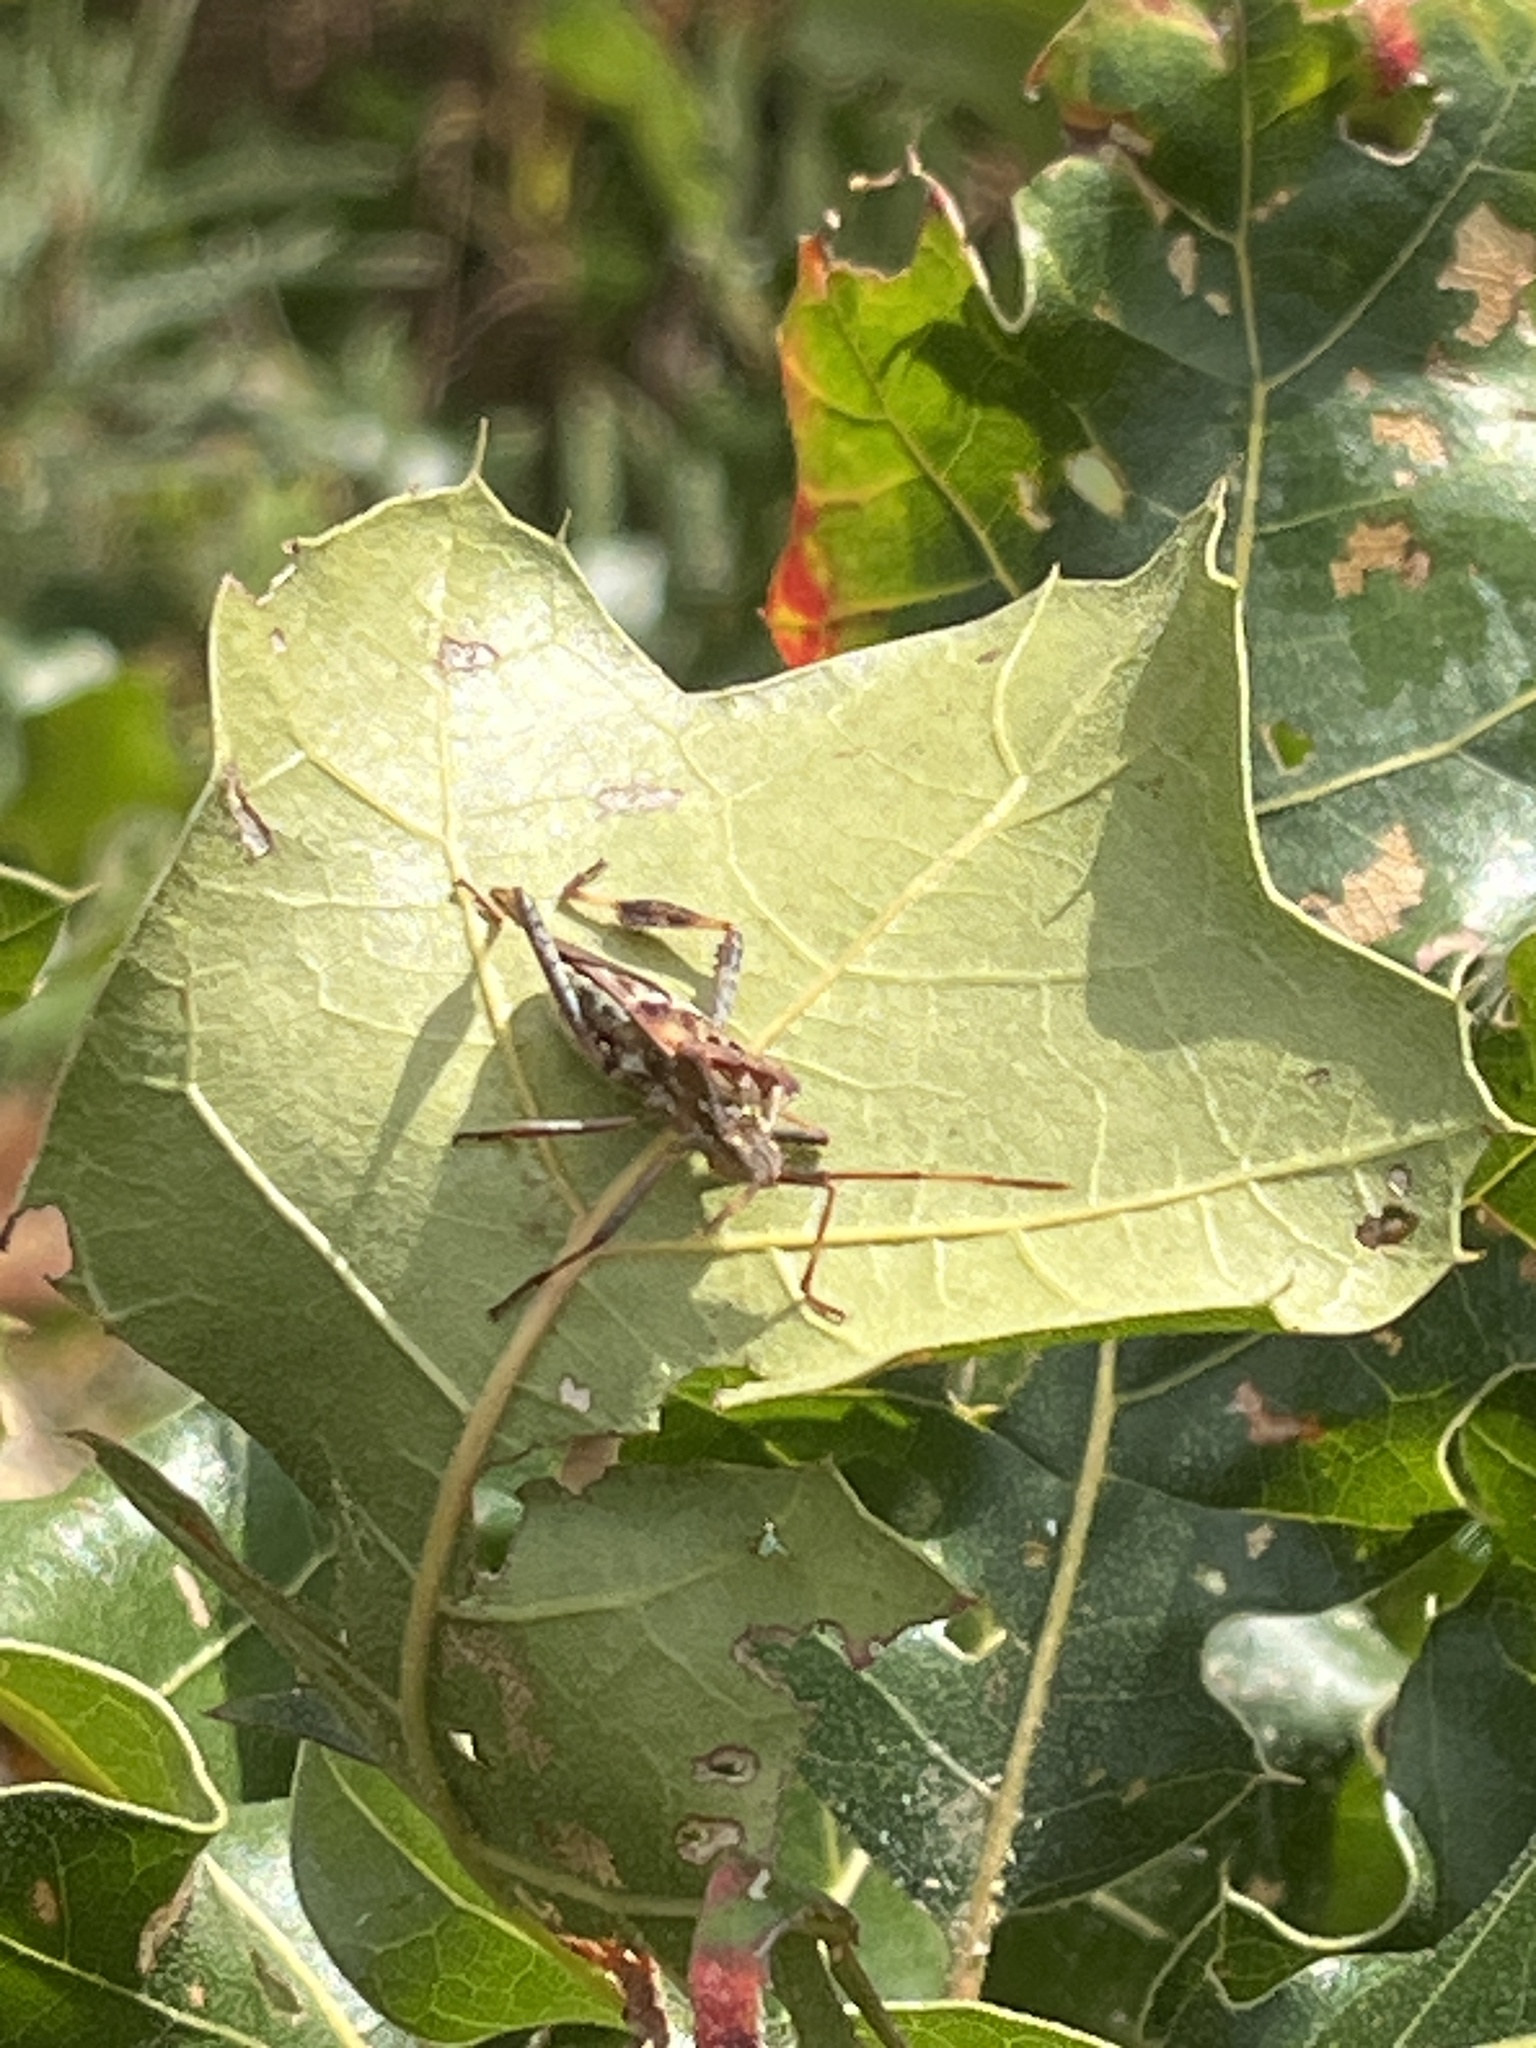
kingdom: Animalia
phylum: Arthropoda
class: Insecta
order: Hemiptera
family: Coreidae
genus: Leptoglossus
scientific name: Leptoglossus occidentalis
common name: Western conifer-seed bug
